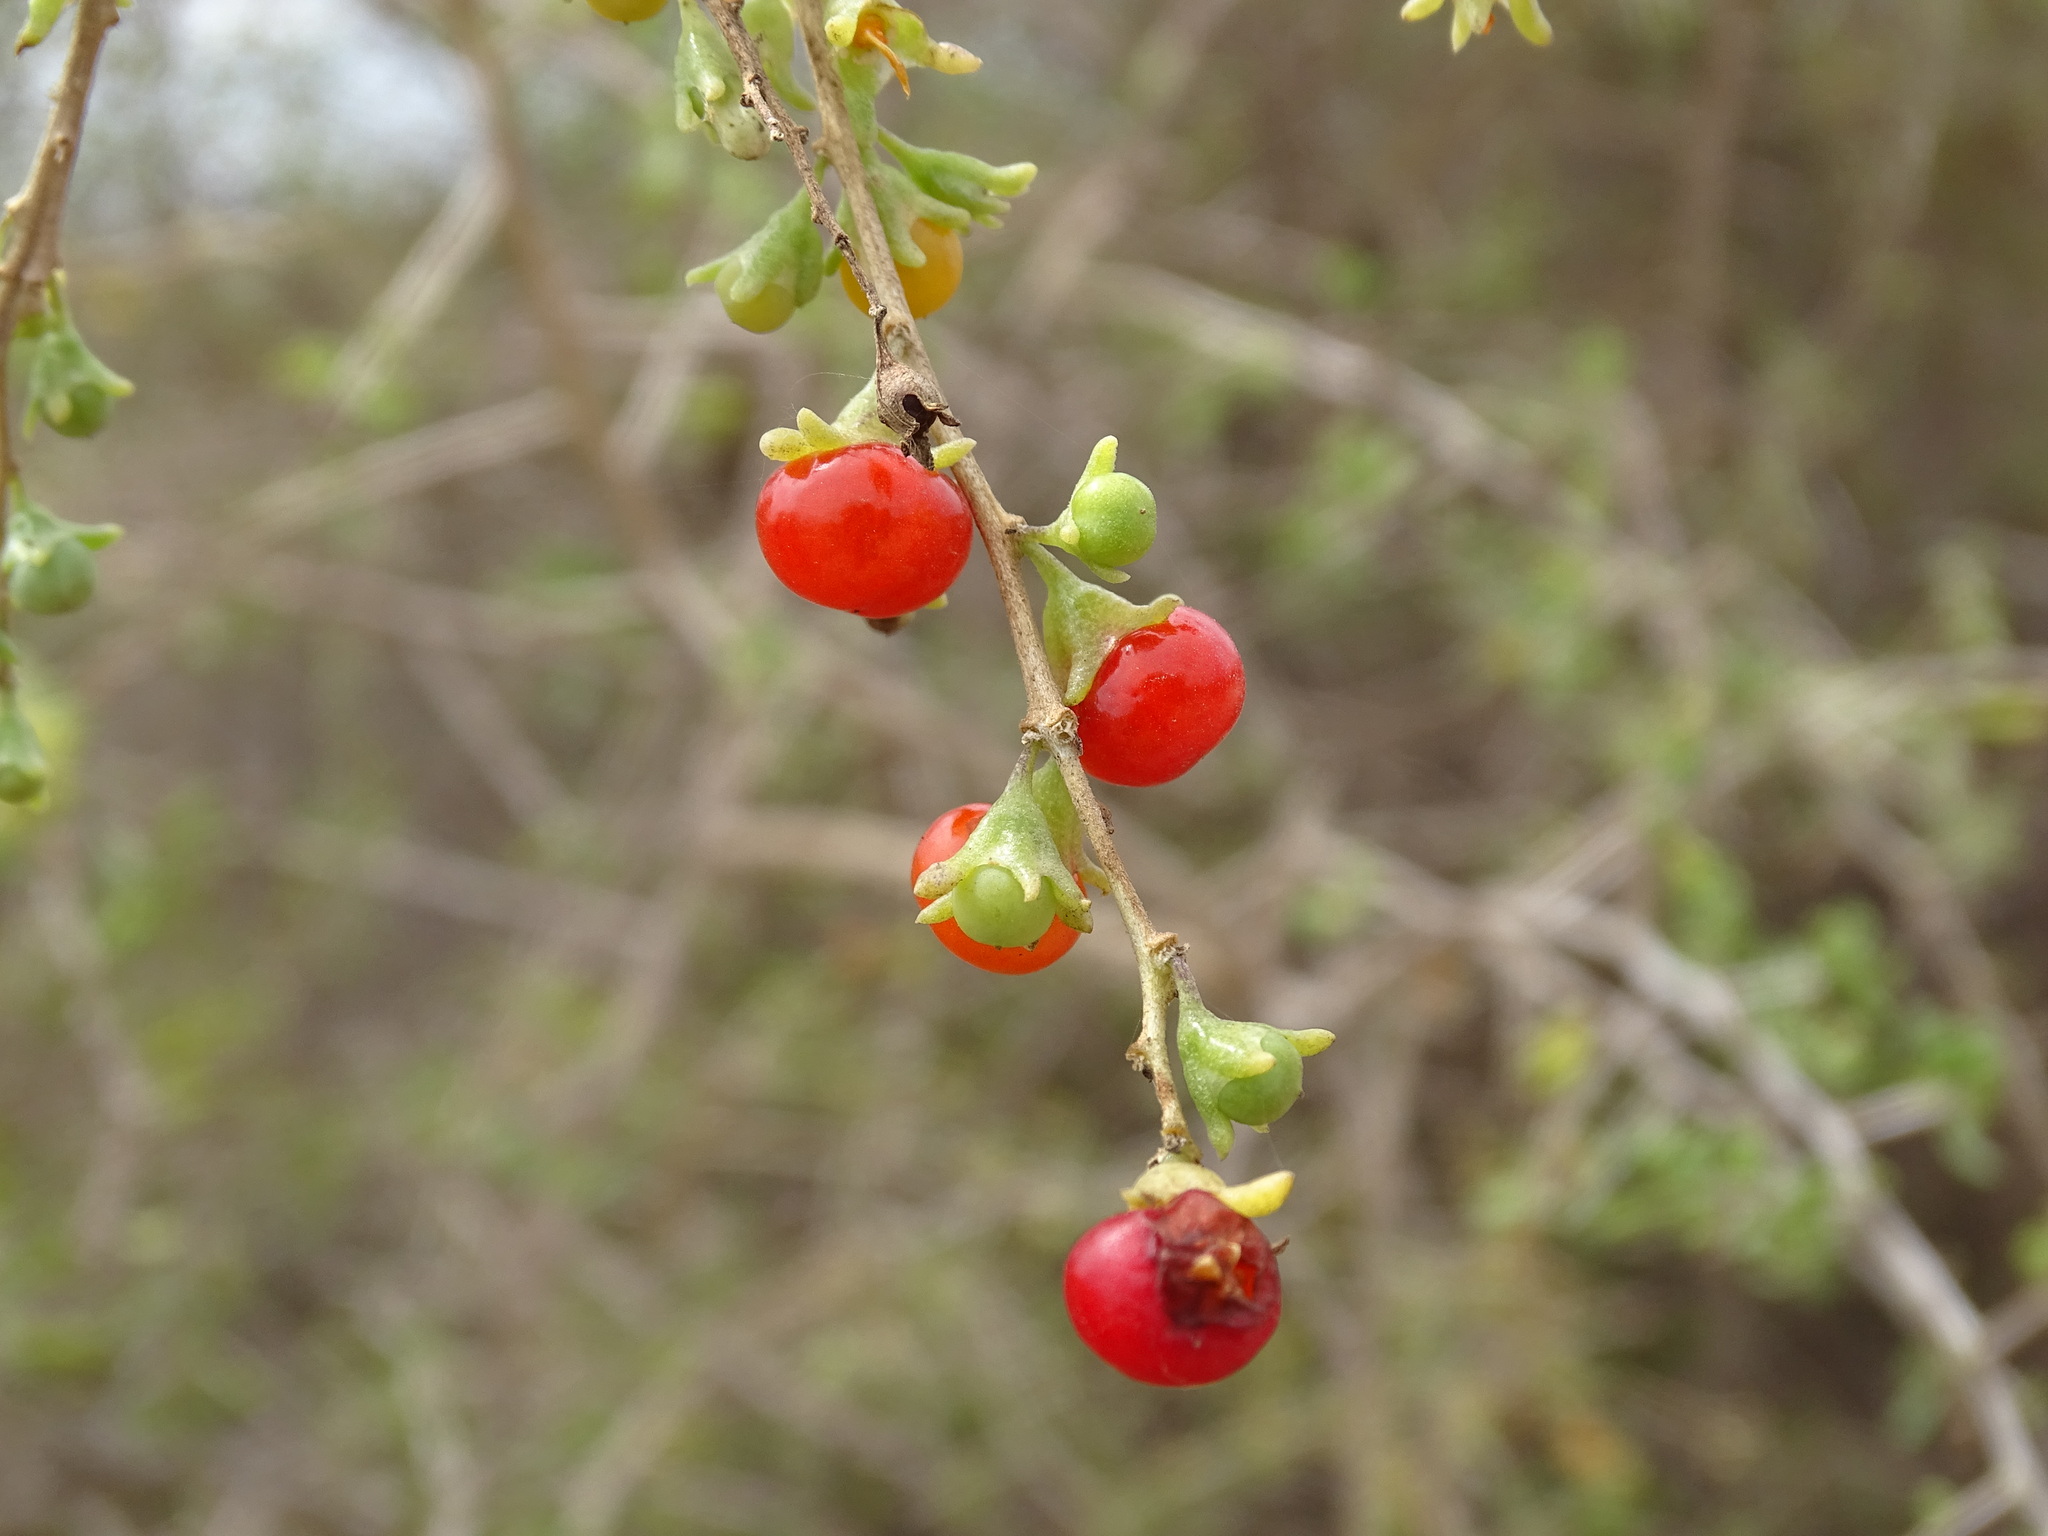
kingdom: Plantae
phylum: Tracheophyta
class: Magnoliopsida
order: Solanales
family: Solanaceae
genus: Lycium
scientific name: Lycium brevipes
